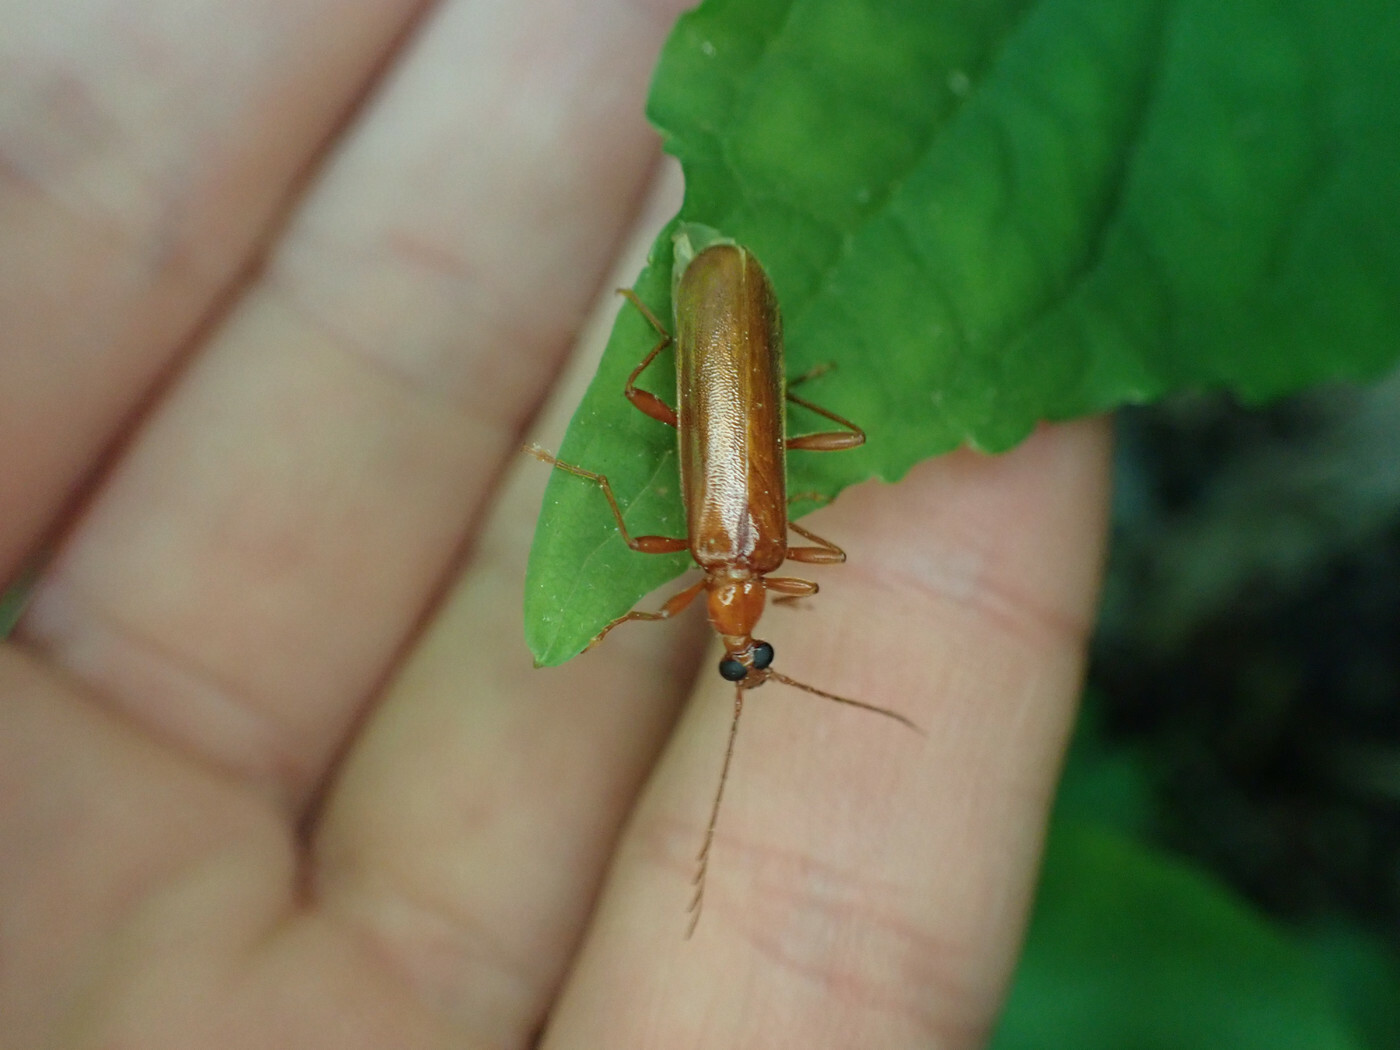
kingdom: Animalia
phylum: Arthropoda
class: Insecta
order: Coleoptera
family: Pyrochroidae
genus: Dendroides
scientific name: Dendroides concolor
